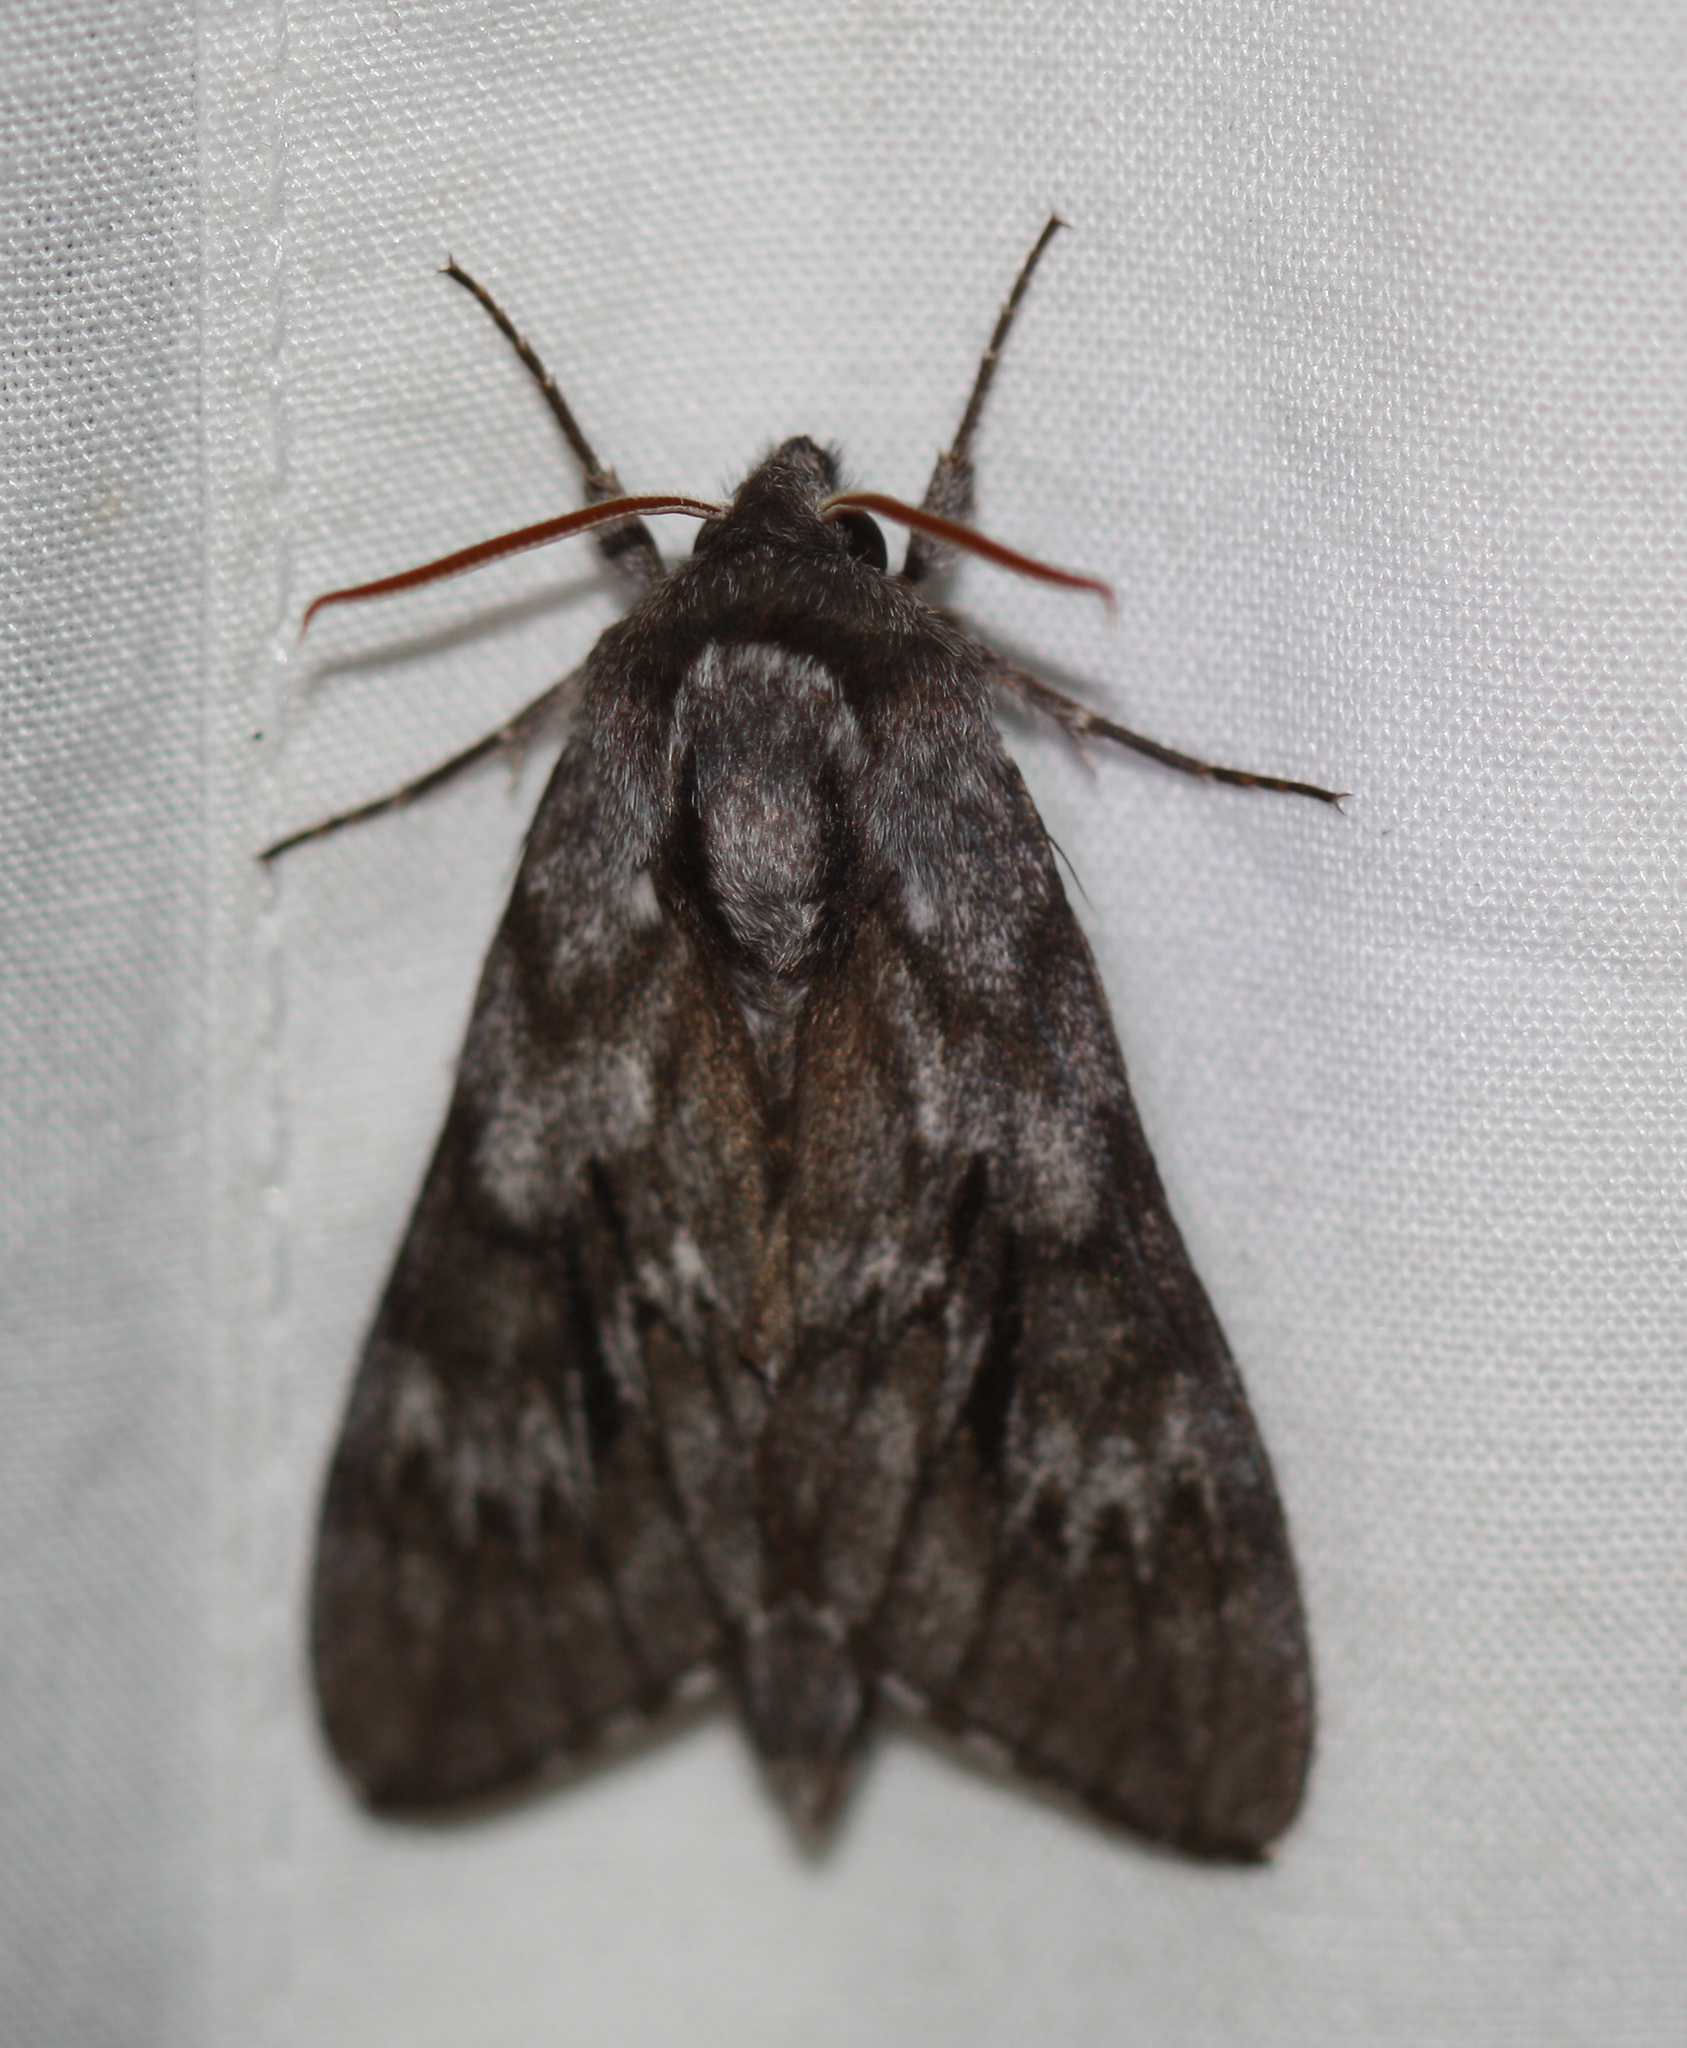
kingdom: Animalia
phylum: Arthropoda
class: Insecta
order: Lepidoptera
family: Sphingidae
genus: Lapara
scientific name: Lapara bombycoides
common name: Northern pine sphinx
